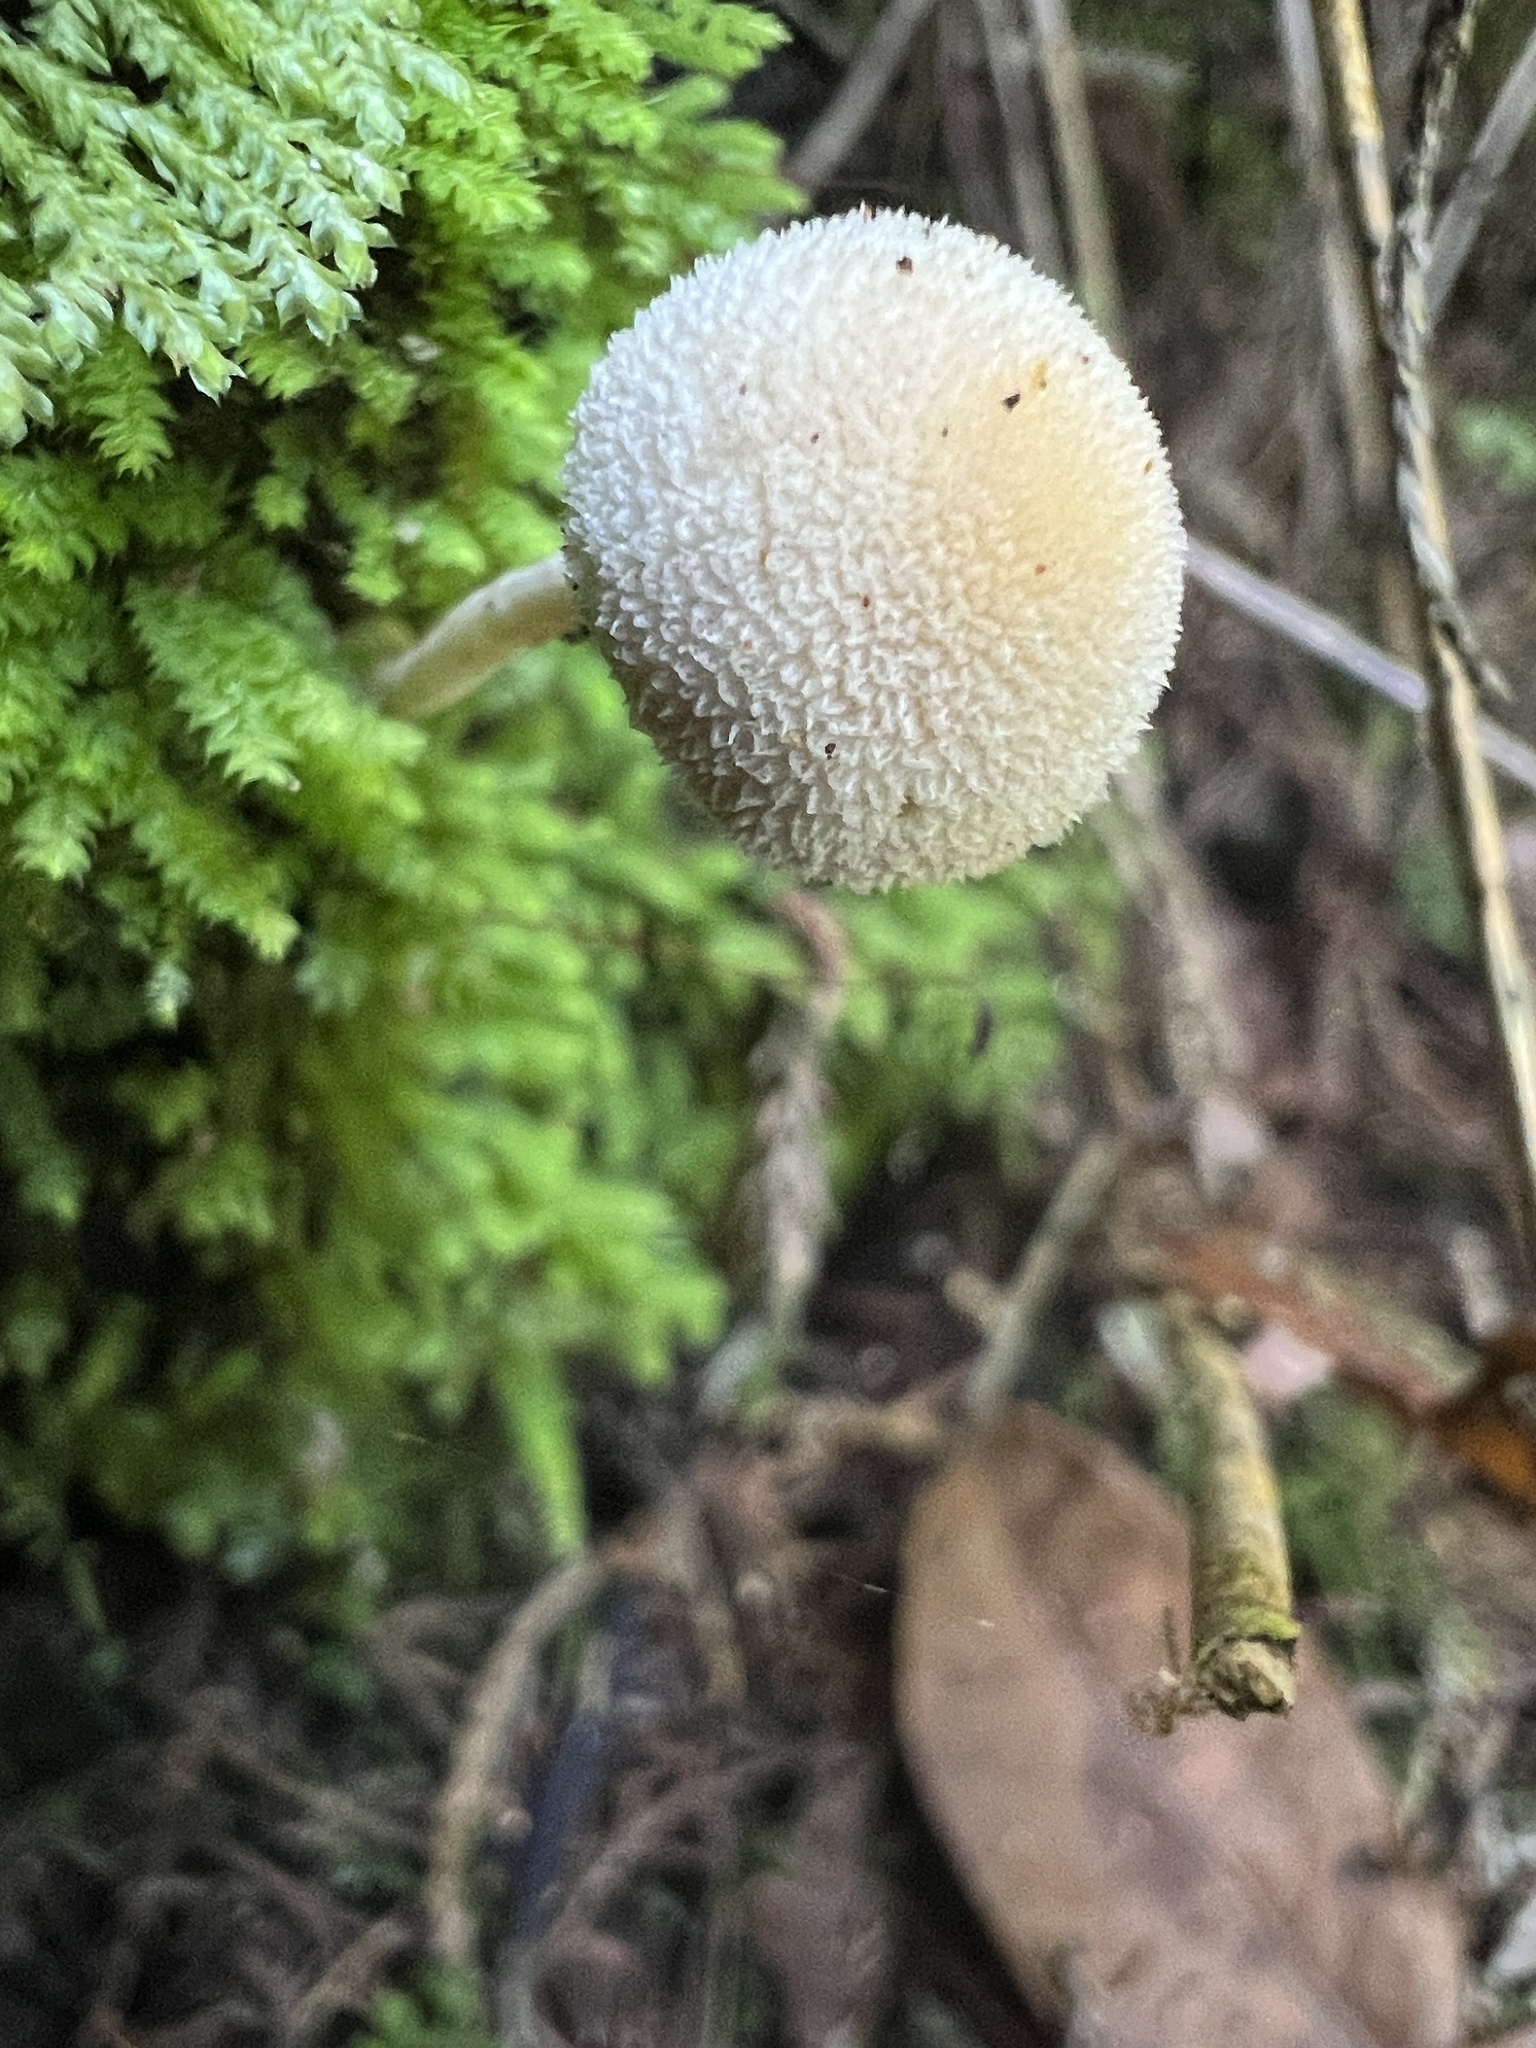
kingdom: Fungi
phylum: Basidiomycota
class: Agaricomycetes
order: Agaricales
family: Bolbitiaceae
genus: Tympanella
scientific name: Tympanella galanthina
